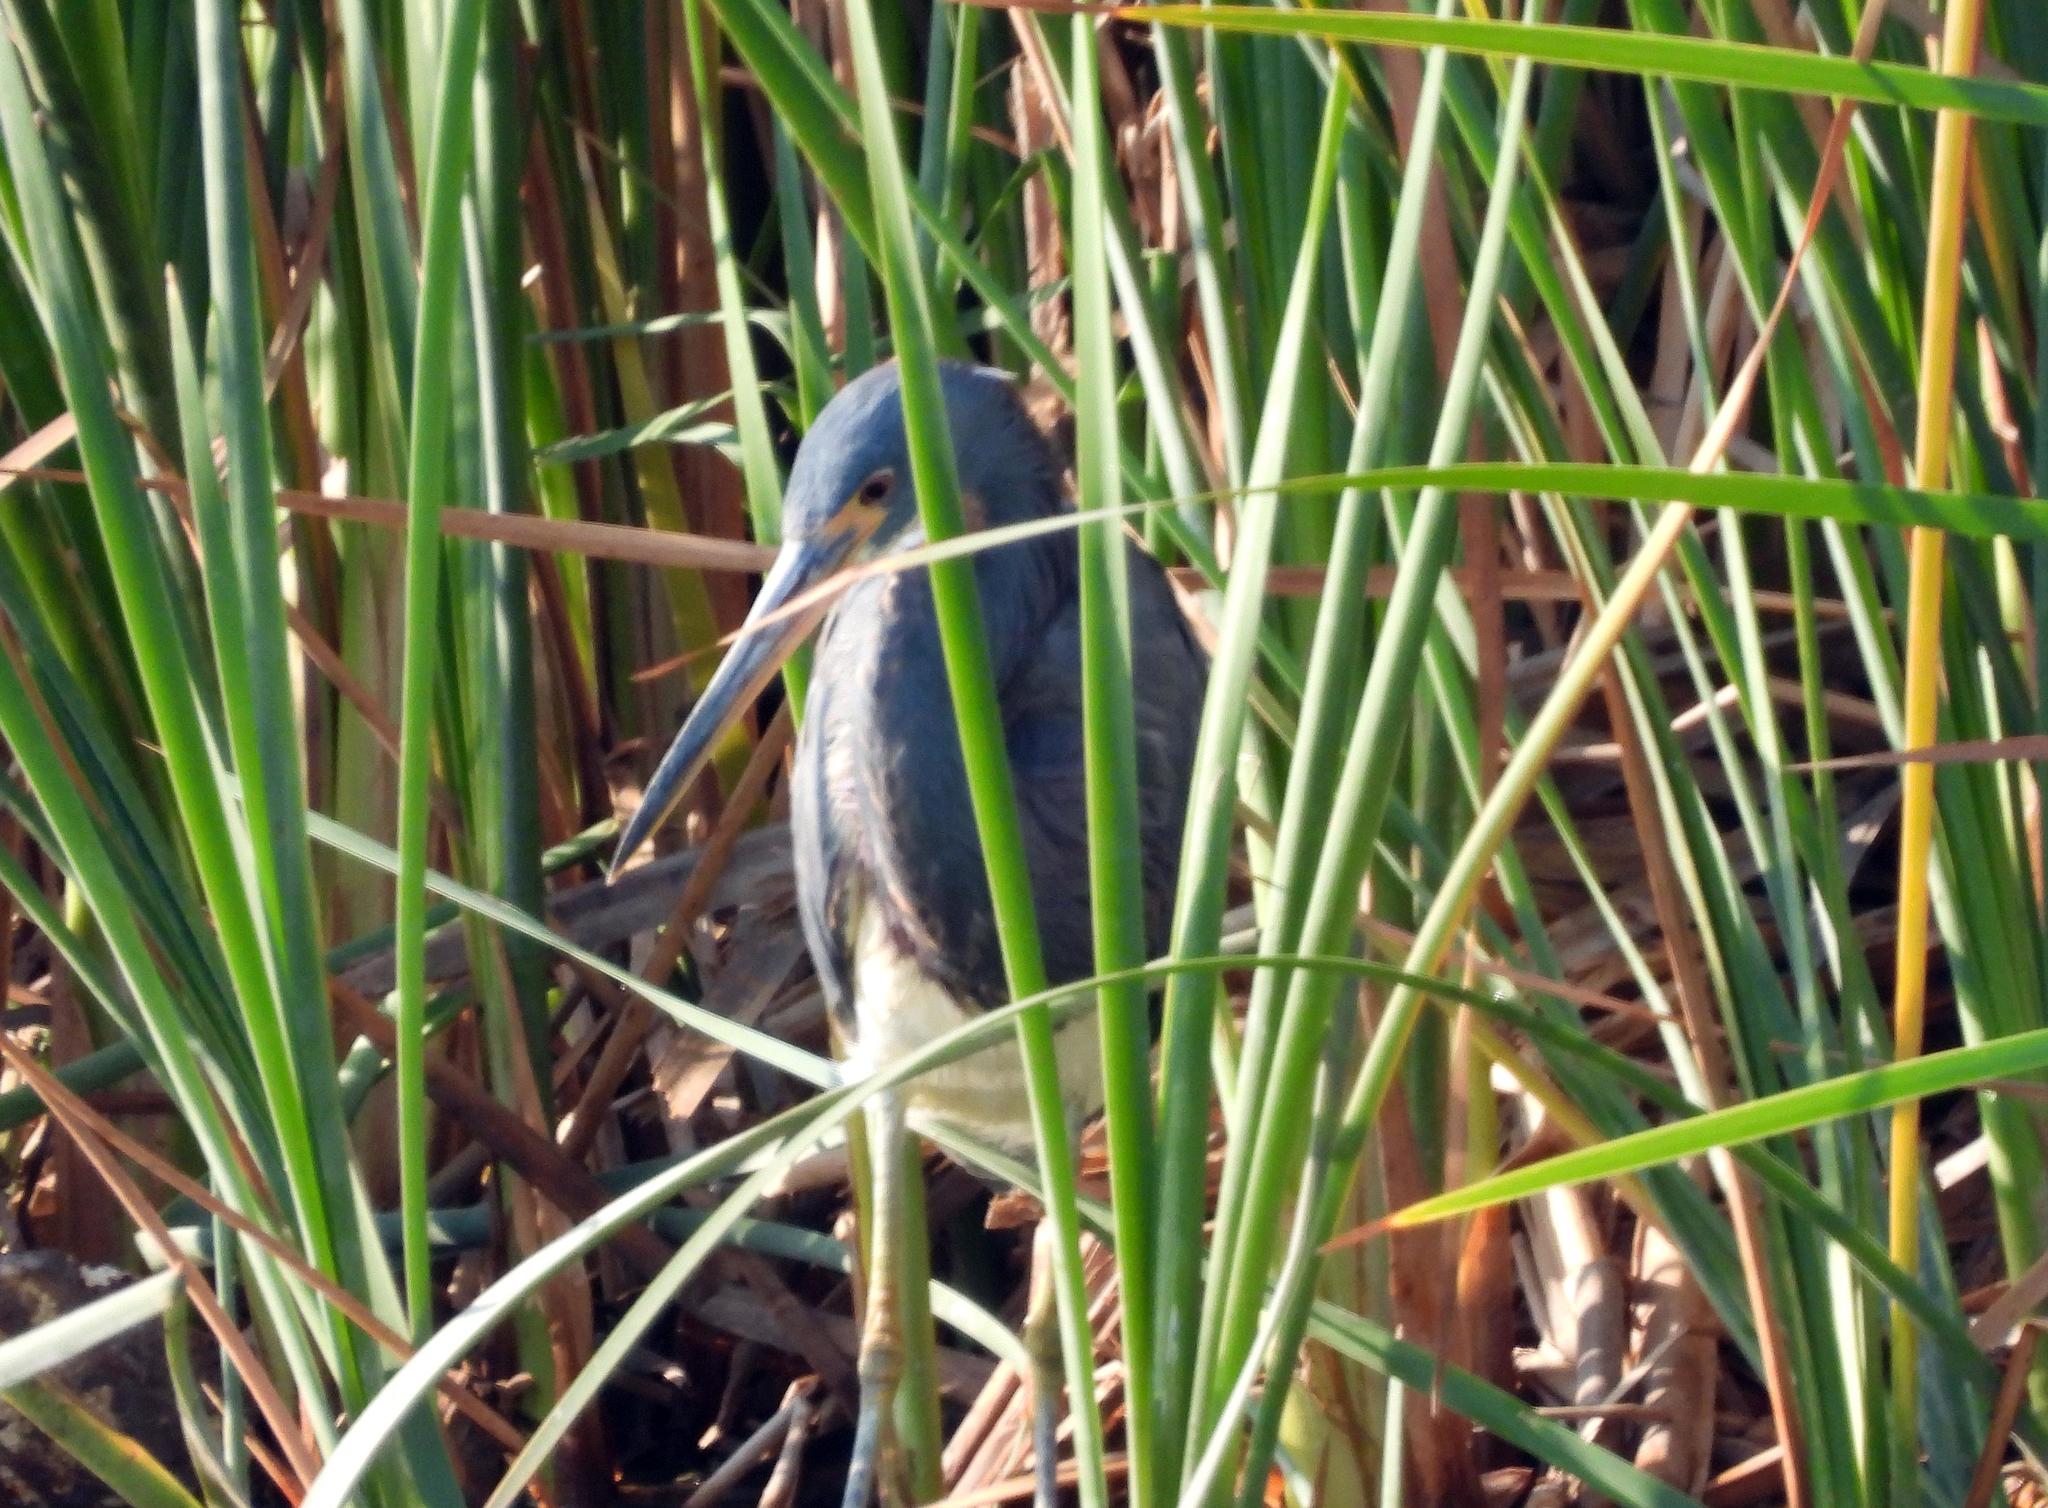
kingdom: Animalia
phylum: Chordata
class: Aves
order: Pelecaniformes
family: Ardeidae
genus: Egretta
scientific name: Egretta tricolor
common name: Tricolored heron
